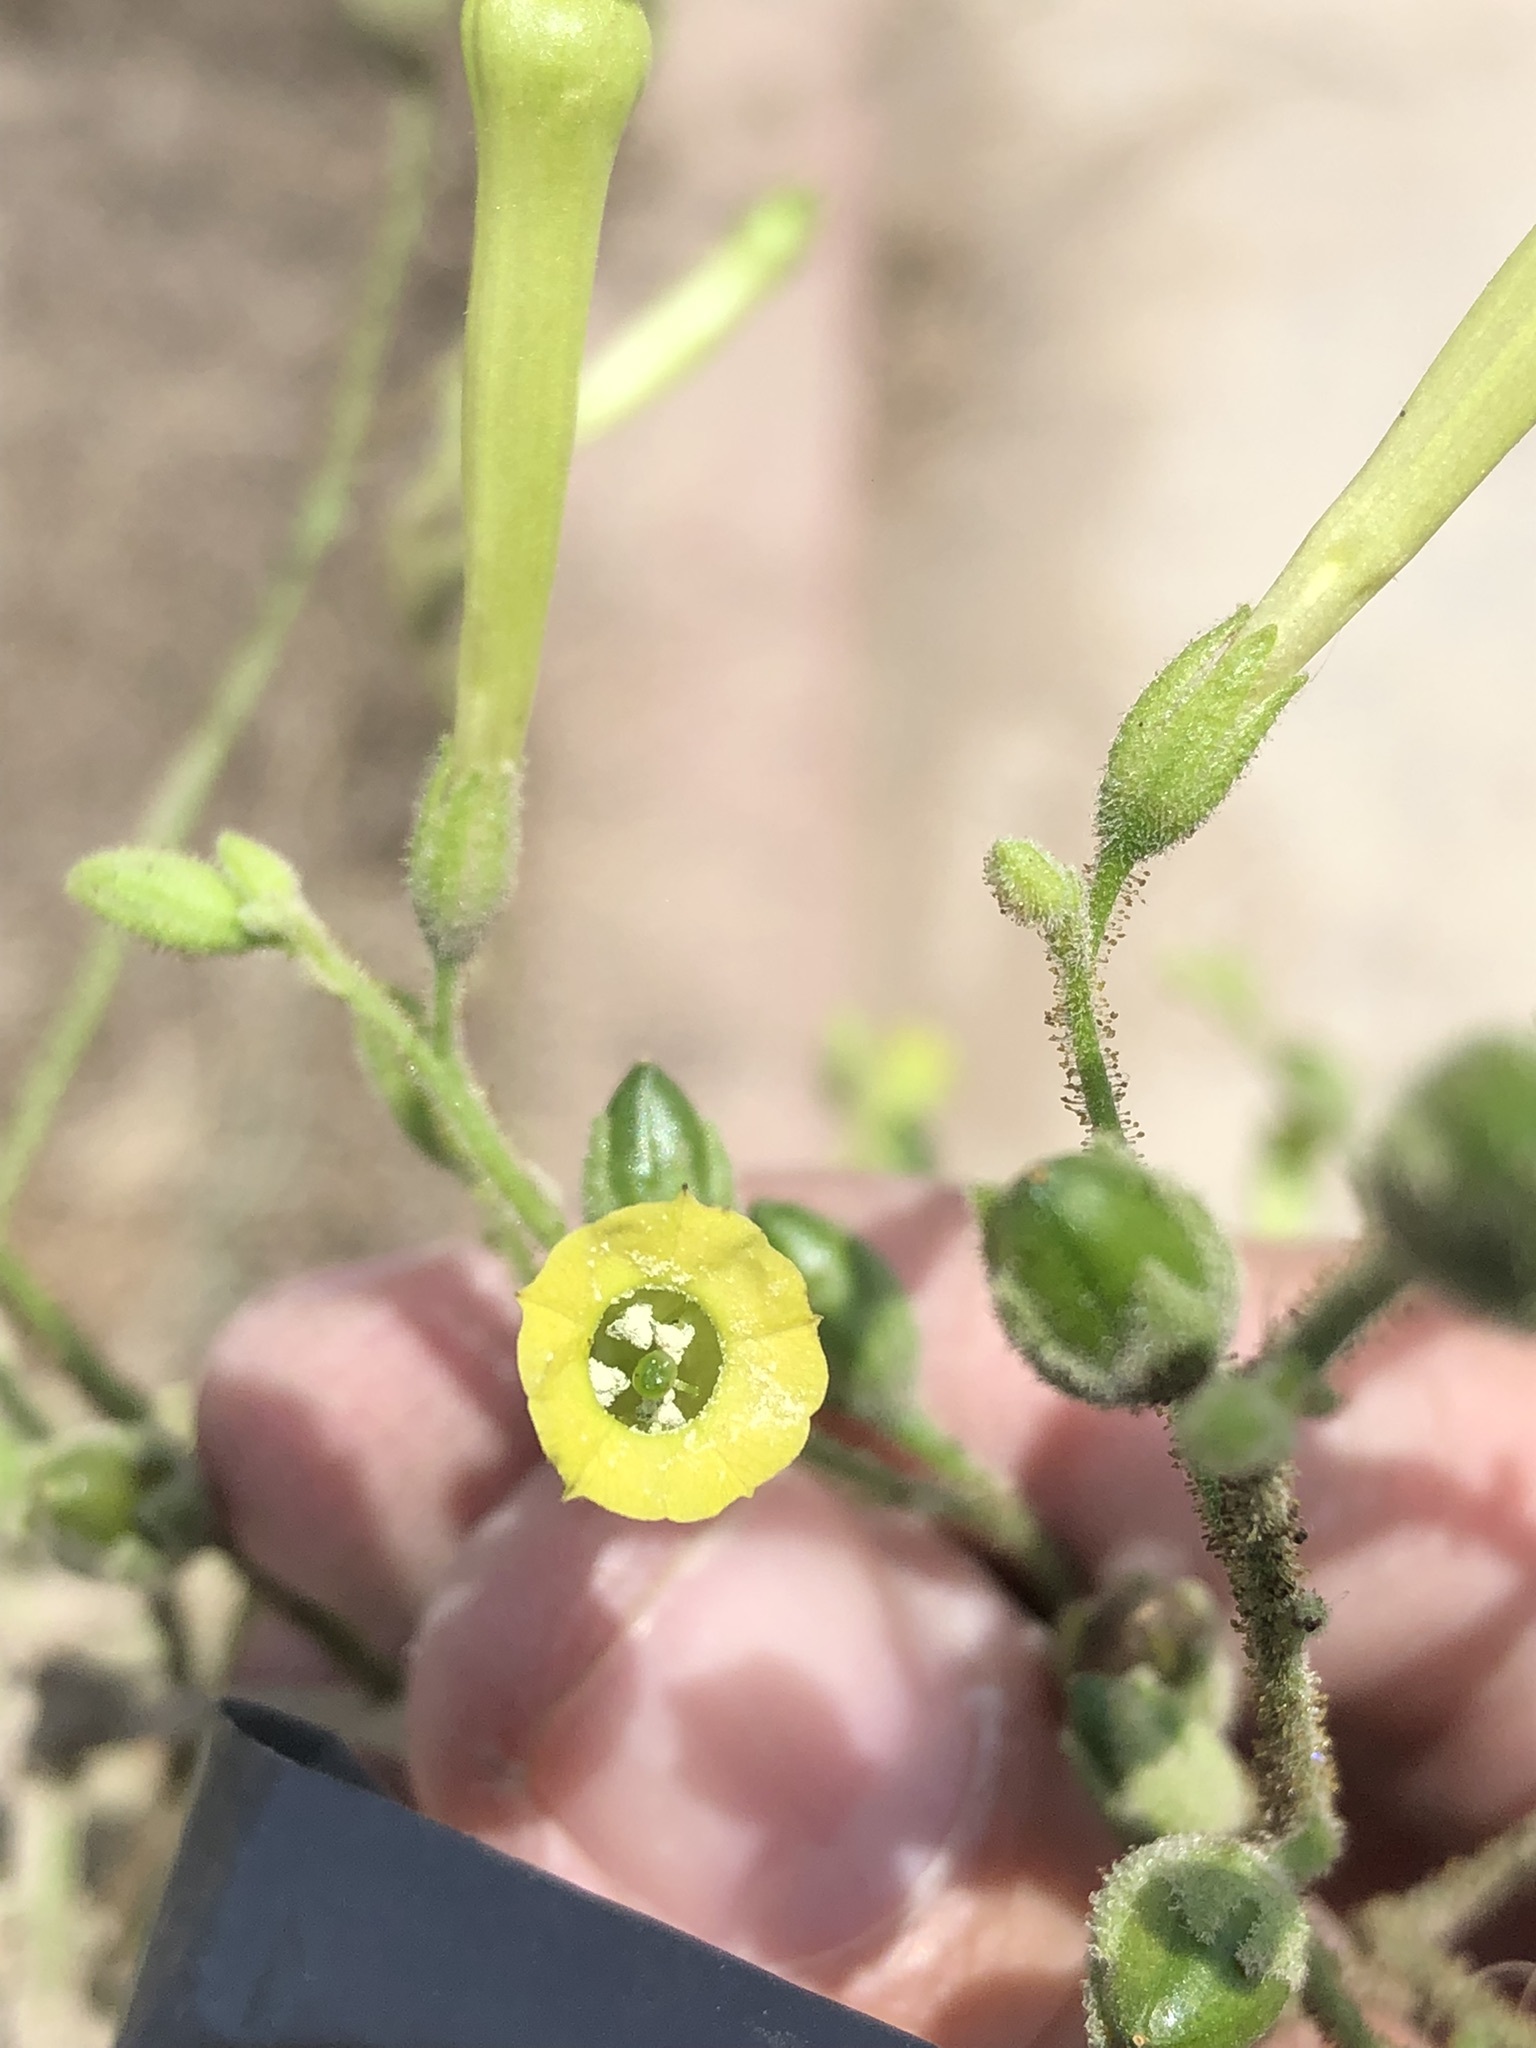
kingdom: Plantae
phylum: Tracheophyta
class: Magnoliopsida
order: Solanales
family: Solanaceae
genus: Nicotiana
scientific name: Nicotiana paniculata
